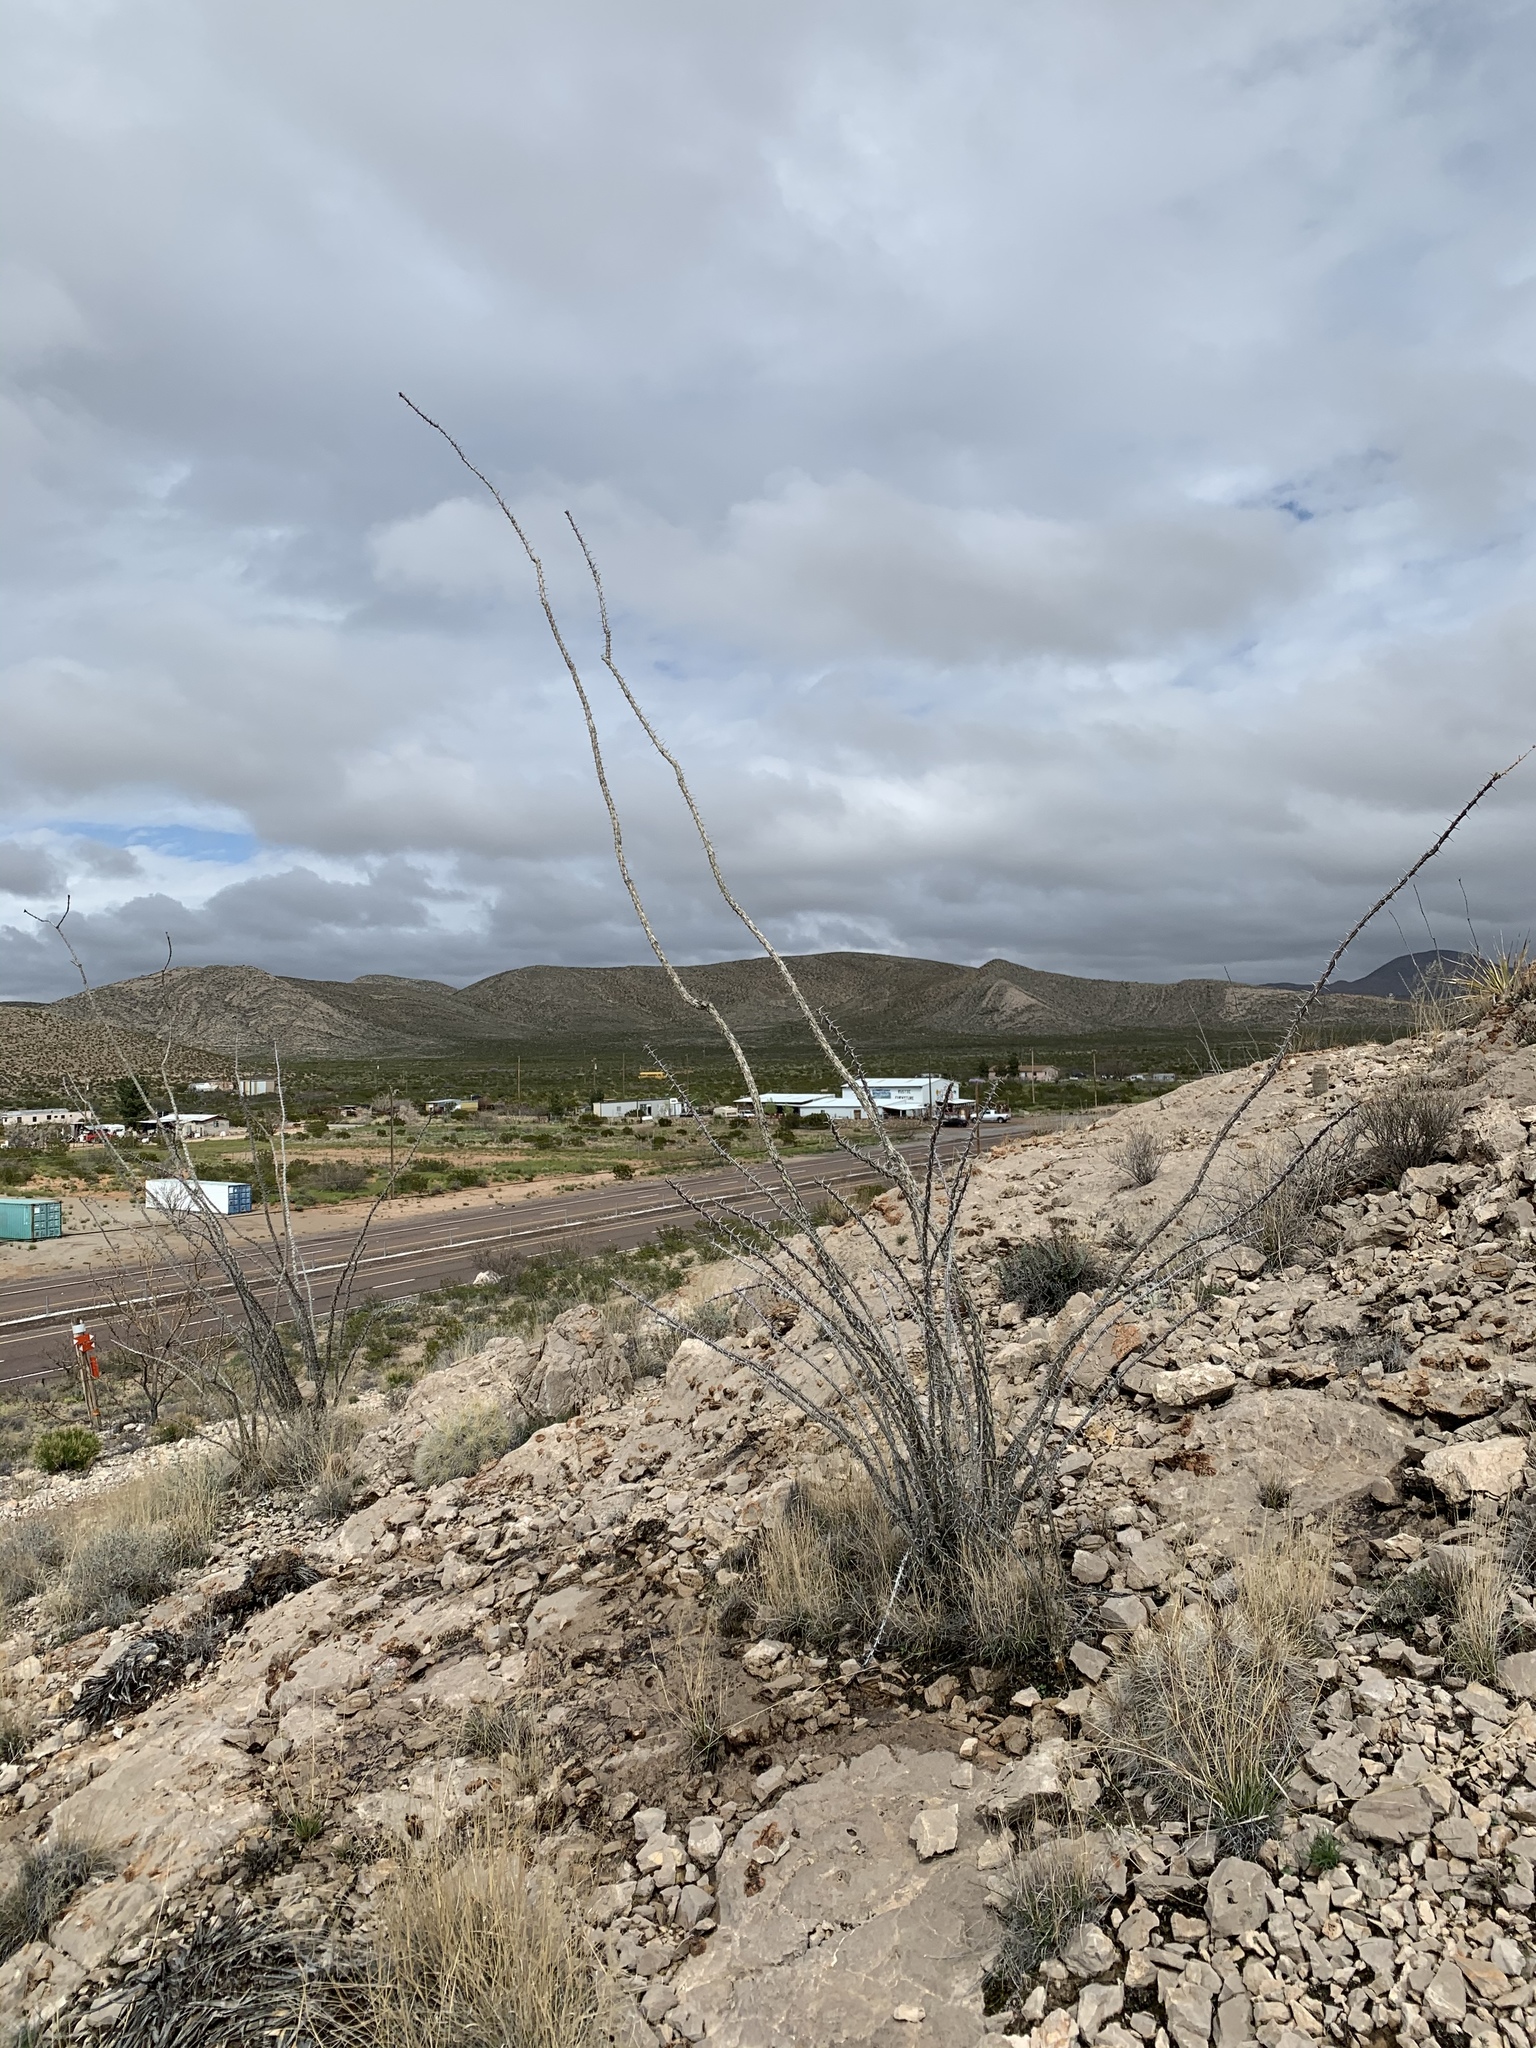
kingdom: Plantae
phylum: Tracheophyta
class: Magnoliopsida
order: Ericales
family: Fouquieriaceae
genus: Fouquieria
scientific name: Fouquieria splendens
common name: Vine-cactus
